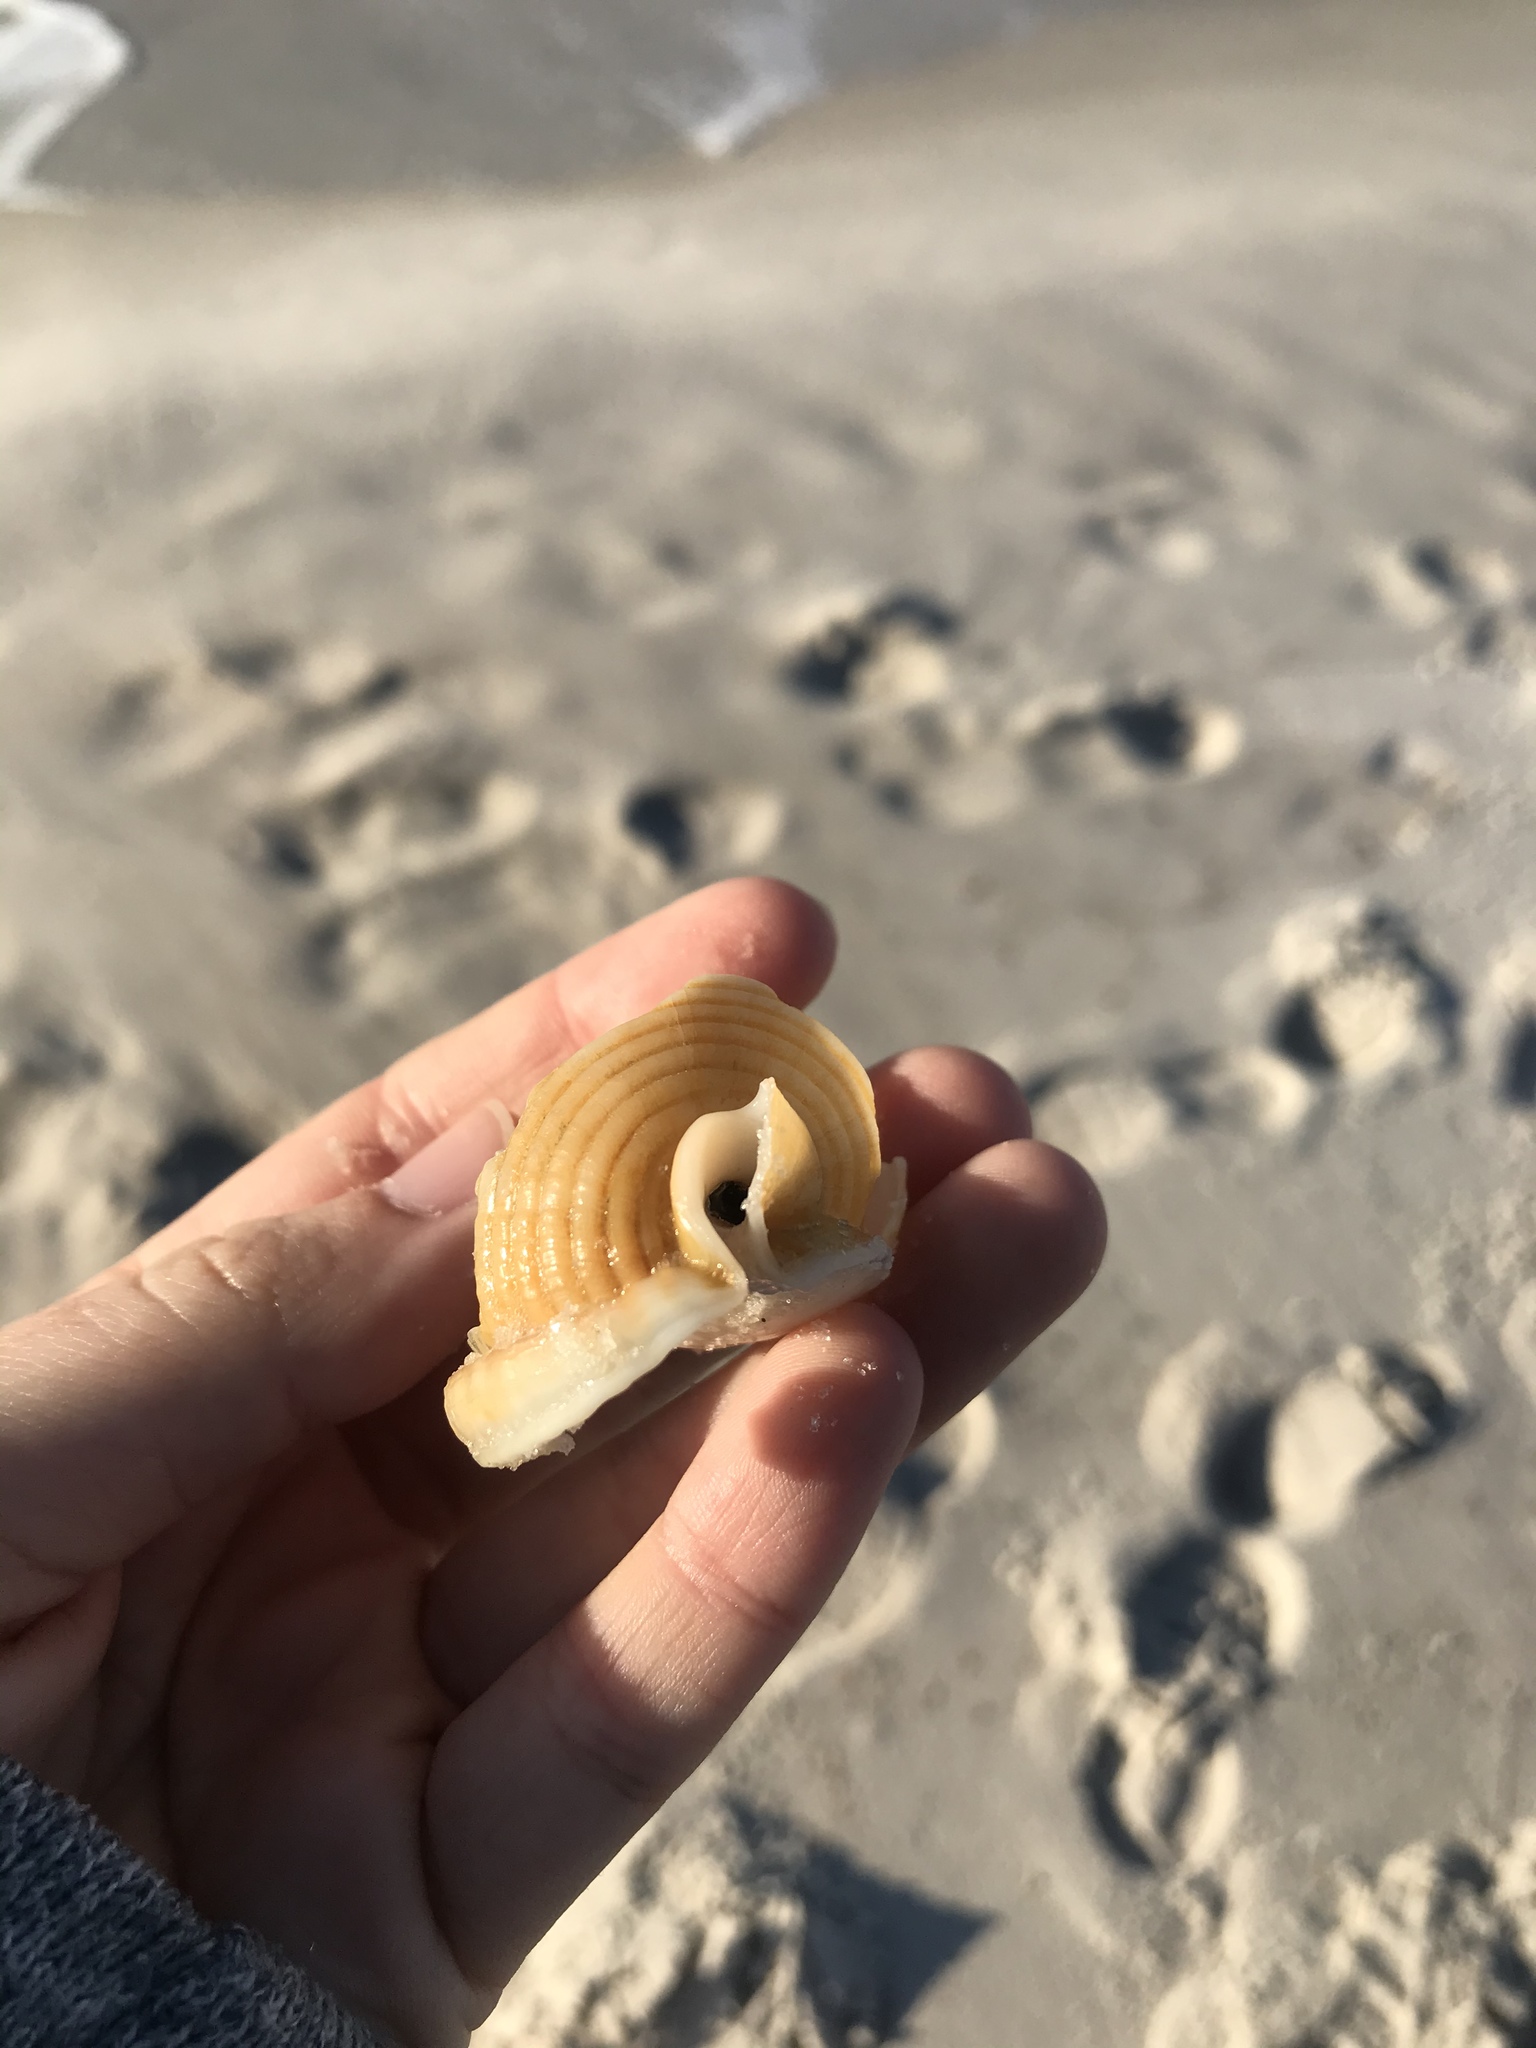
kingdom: Animalia
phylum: Mollusca
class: Gastropoda
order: Littorinimorpha
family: Cassidae
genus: Semicassis
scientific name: Semicassis granulata
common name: Scotch bonnet
